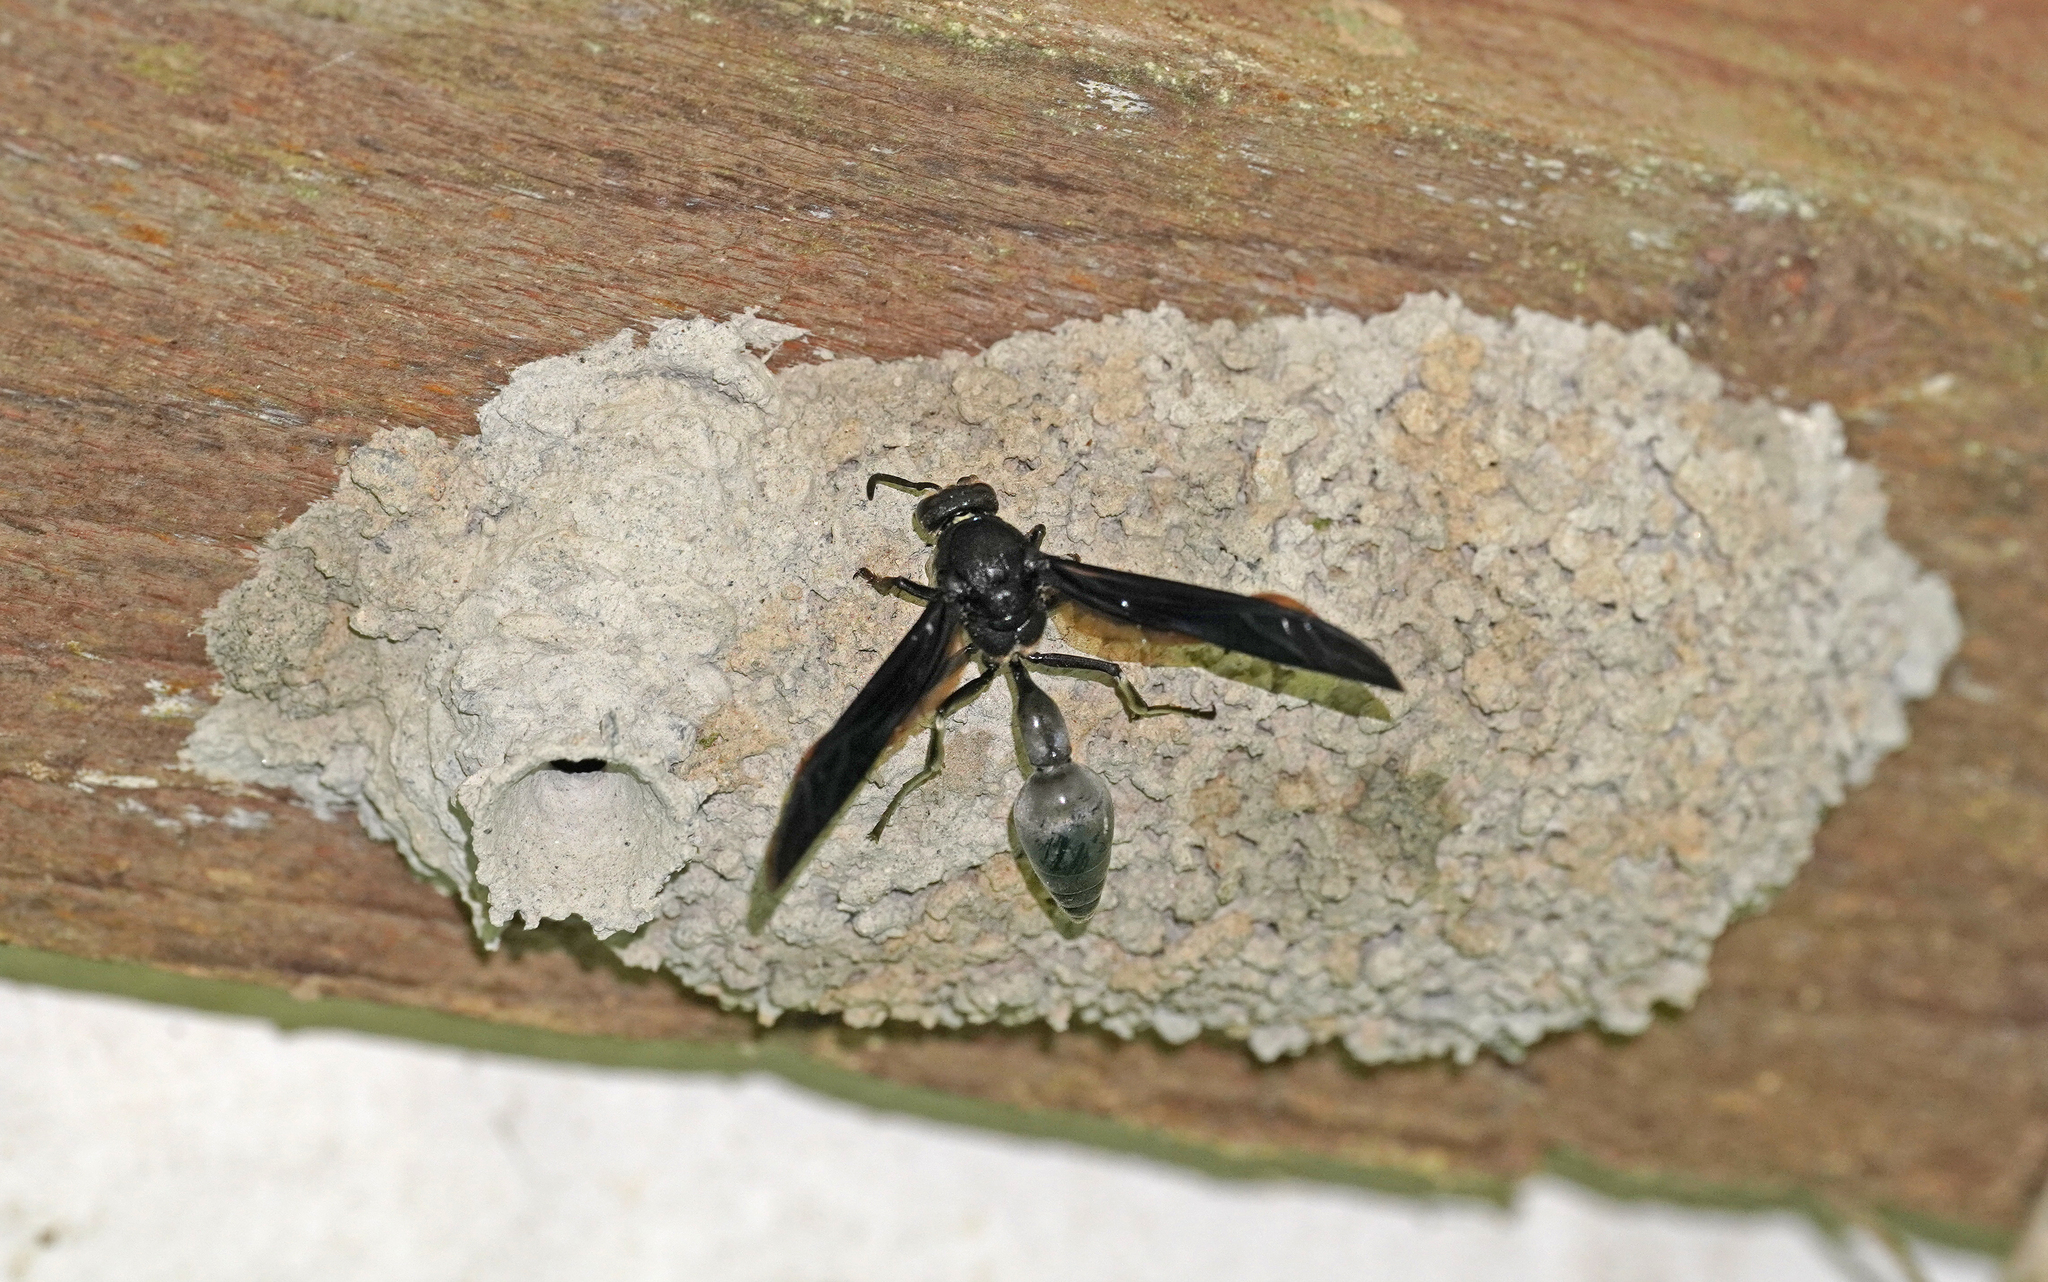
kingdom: Animalia
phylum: Arthropoda
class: Insecta
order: Hymenoptera
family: Eumenidae
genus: Brachymenes
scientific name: Brachymenes wagnerianus
